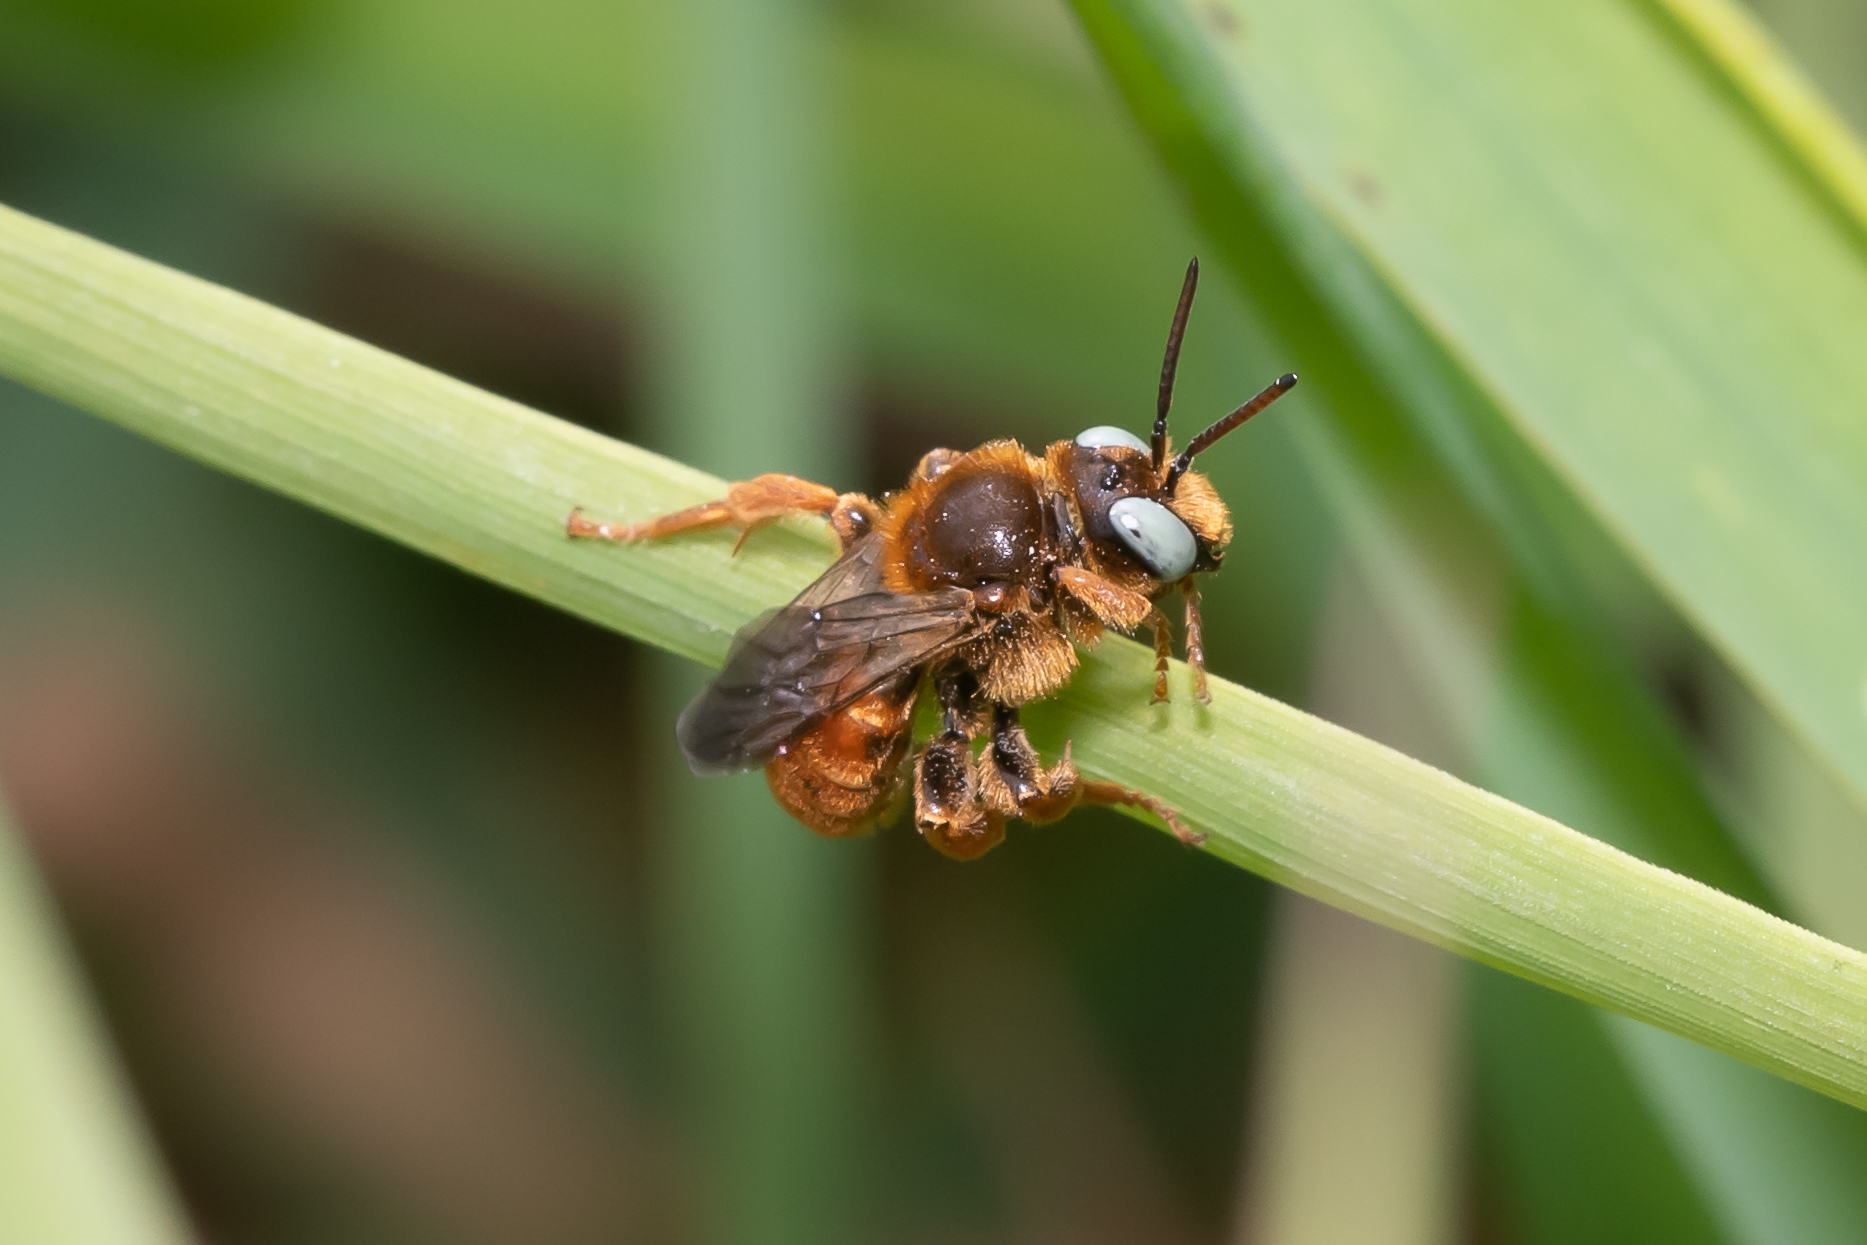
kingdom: Animalia
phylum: Arthropoda
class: Insecta
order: Hymenoptera
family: Apidae
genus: Epeoloides
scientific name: Epeoloides coecutiens
